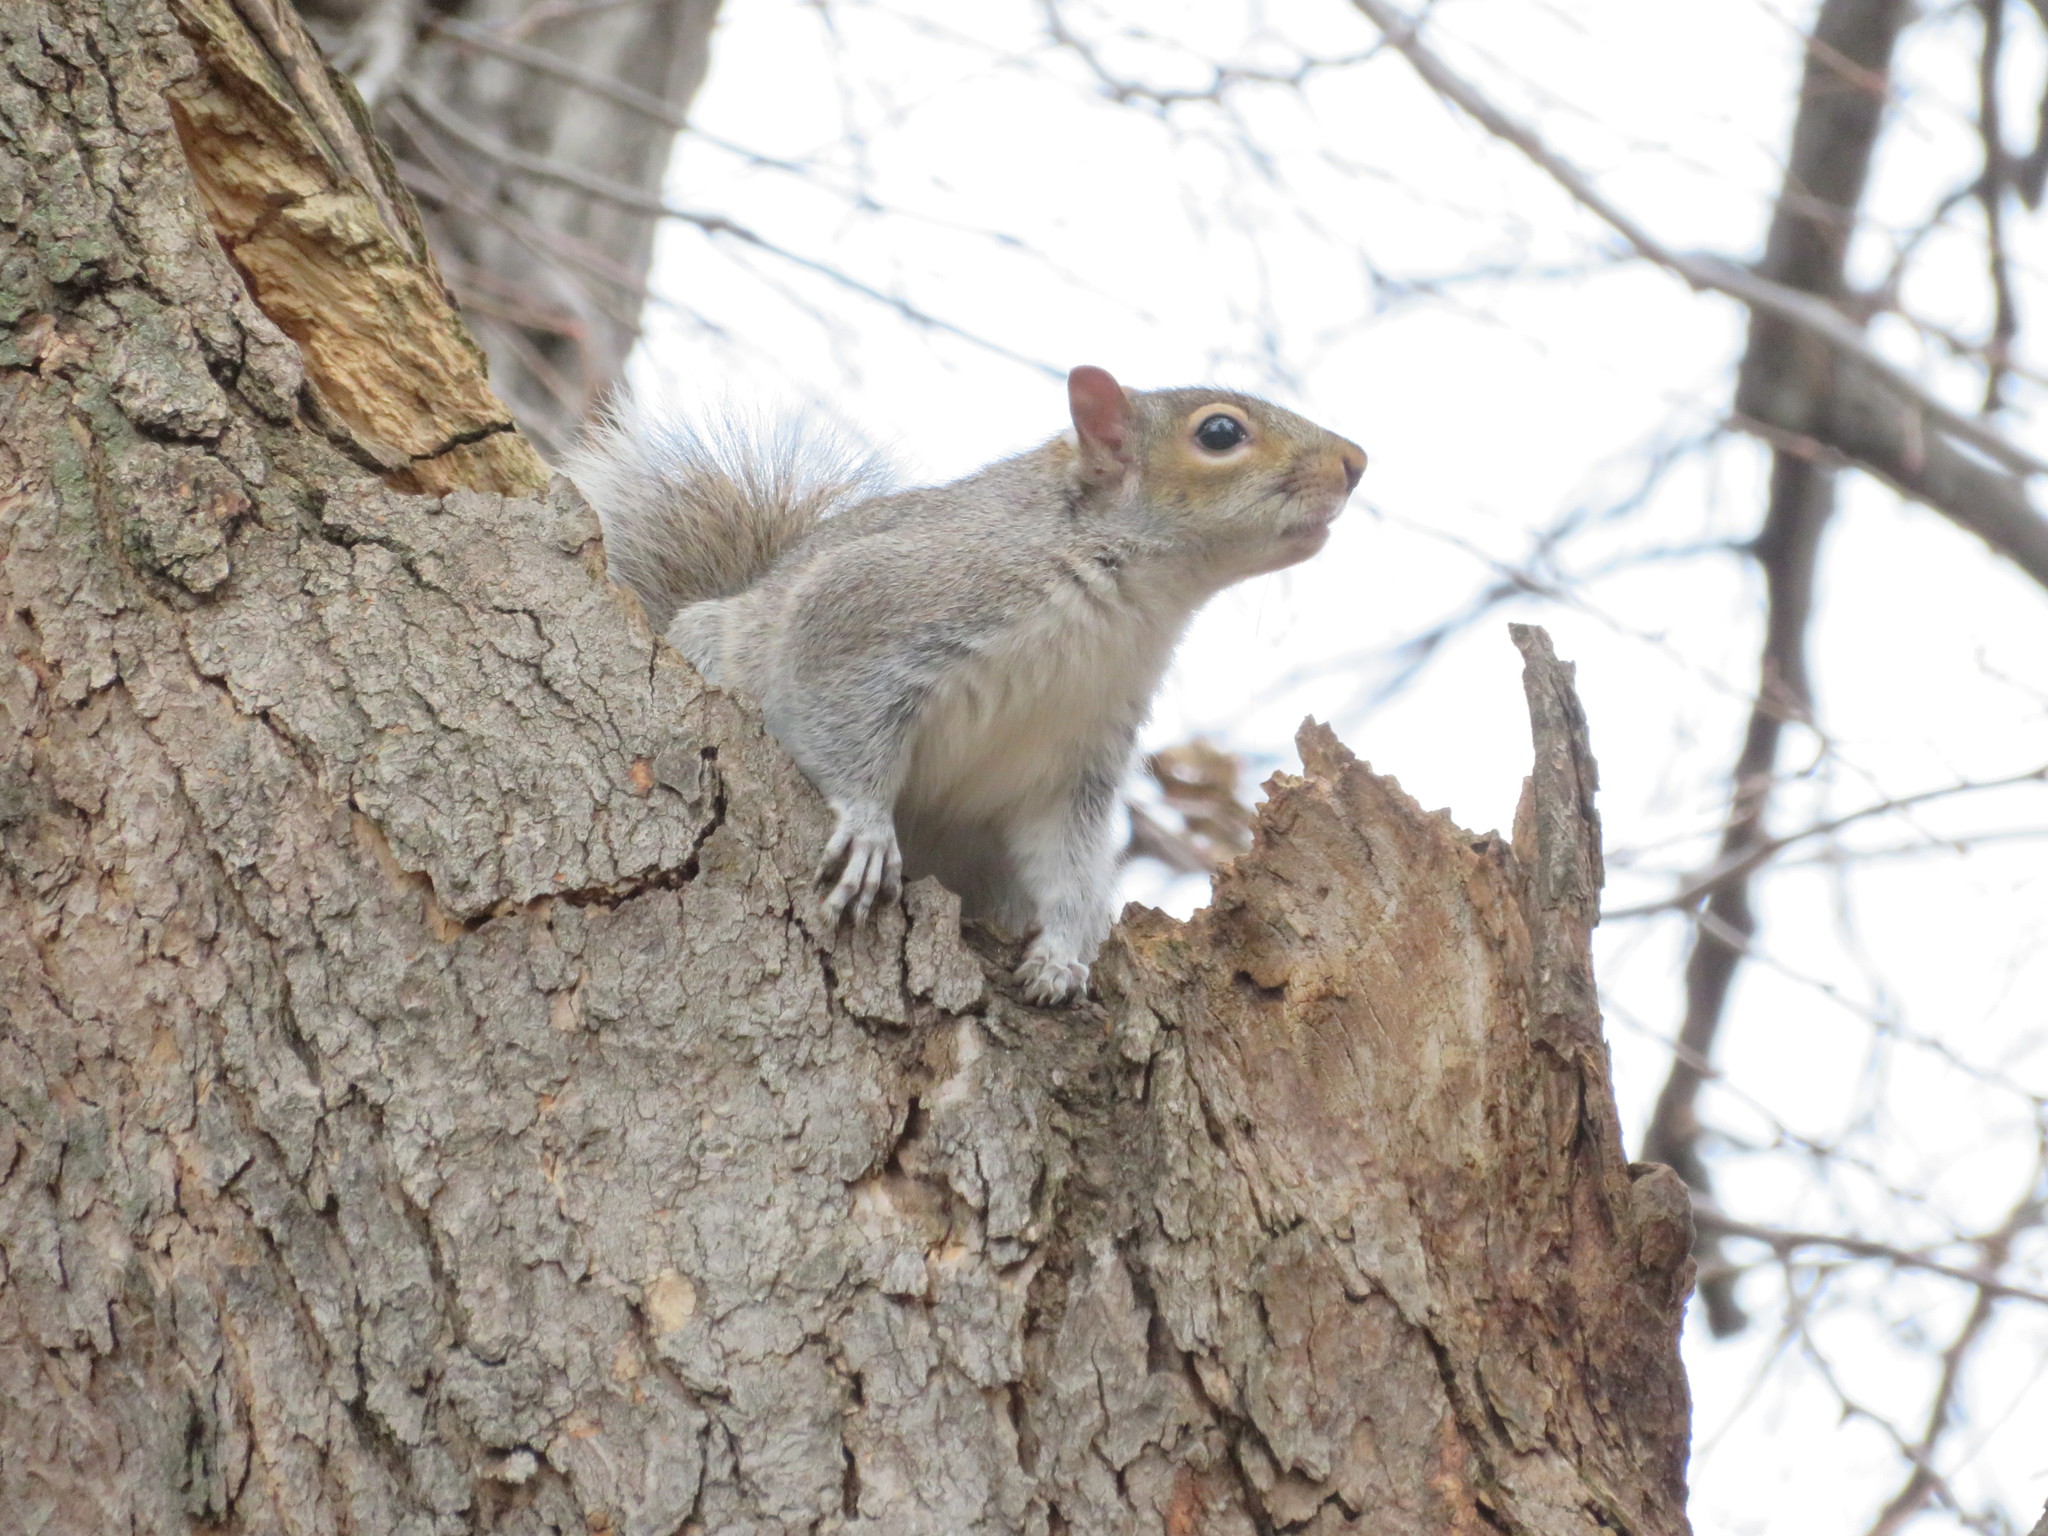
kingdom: Animalia
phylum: Chordata
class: Mammalia
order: Rodentia
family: Sciuridae
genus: Sciurus
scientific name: Sciurus carolinensis
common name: Eastern gray squirrel
